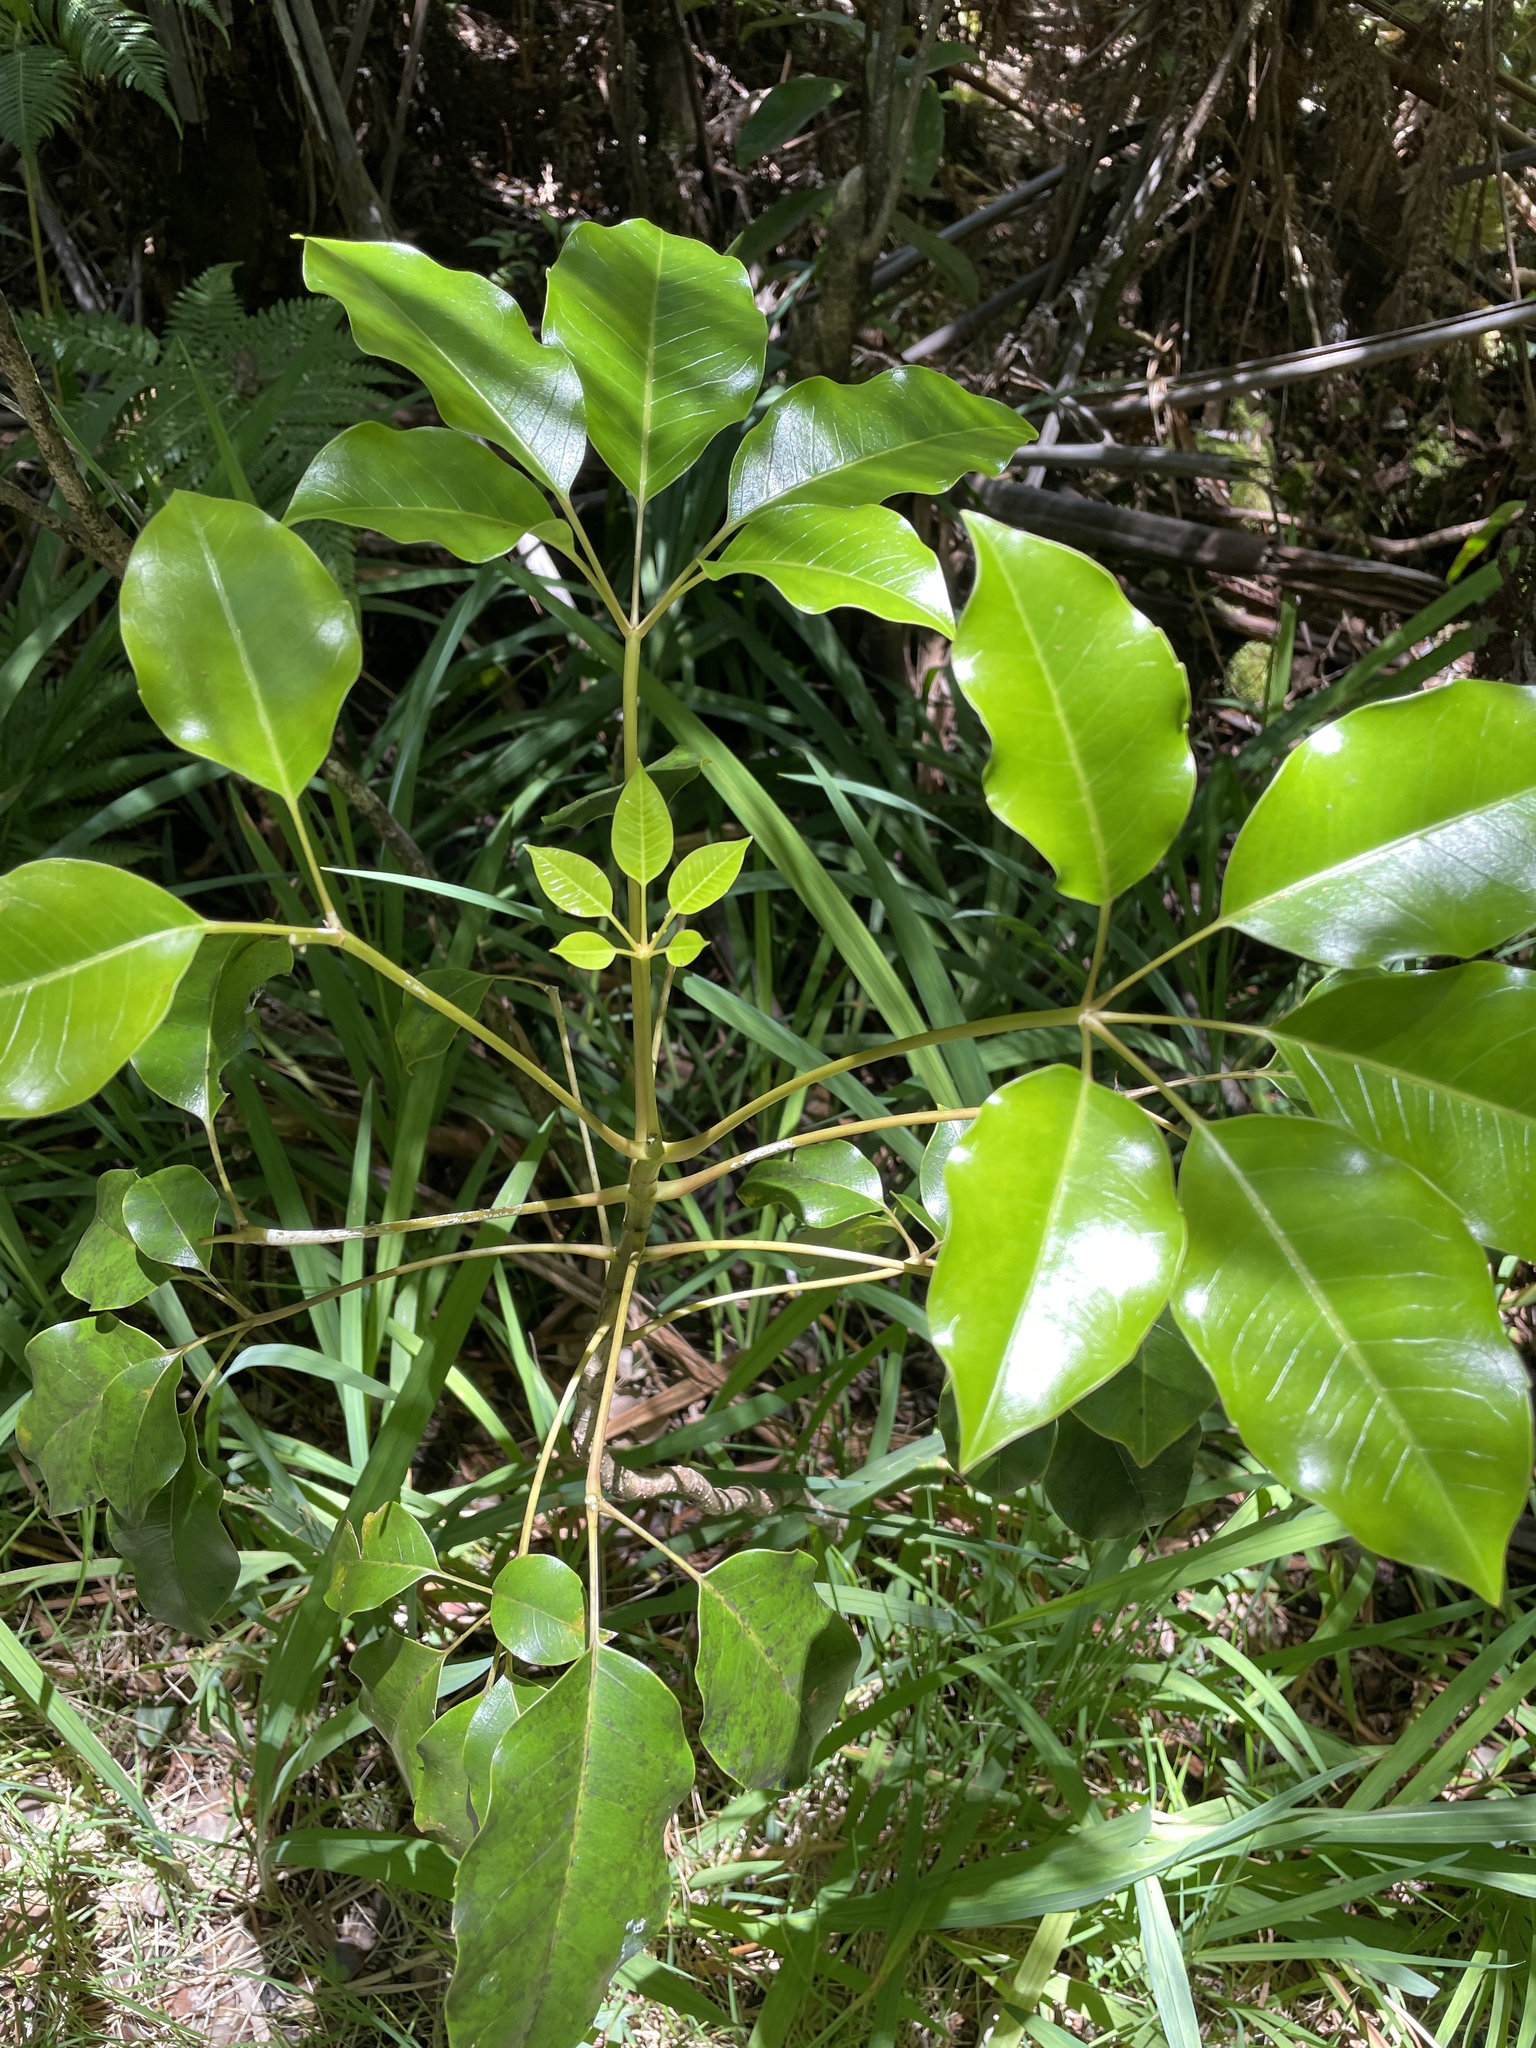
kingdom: Plantae
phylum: Tracheophyta
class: Magnoliopsida
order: Apiales
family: Araliaceae
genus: Cheirodendron
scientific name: Cheirodendron trigynum
